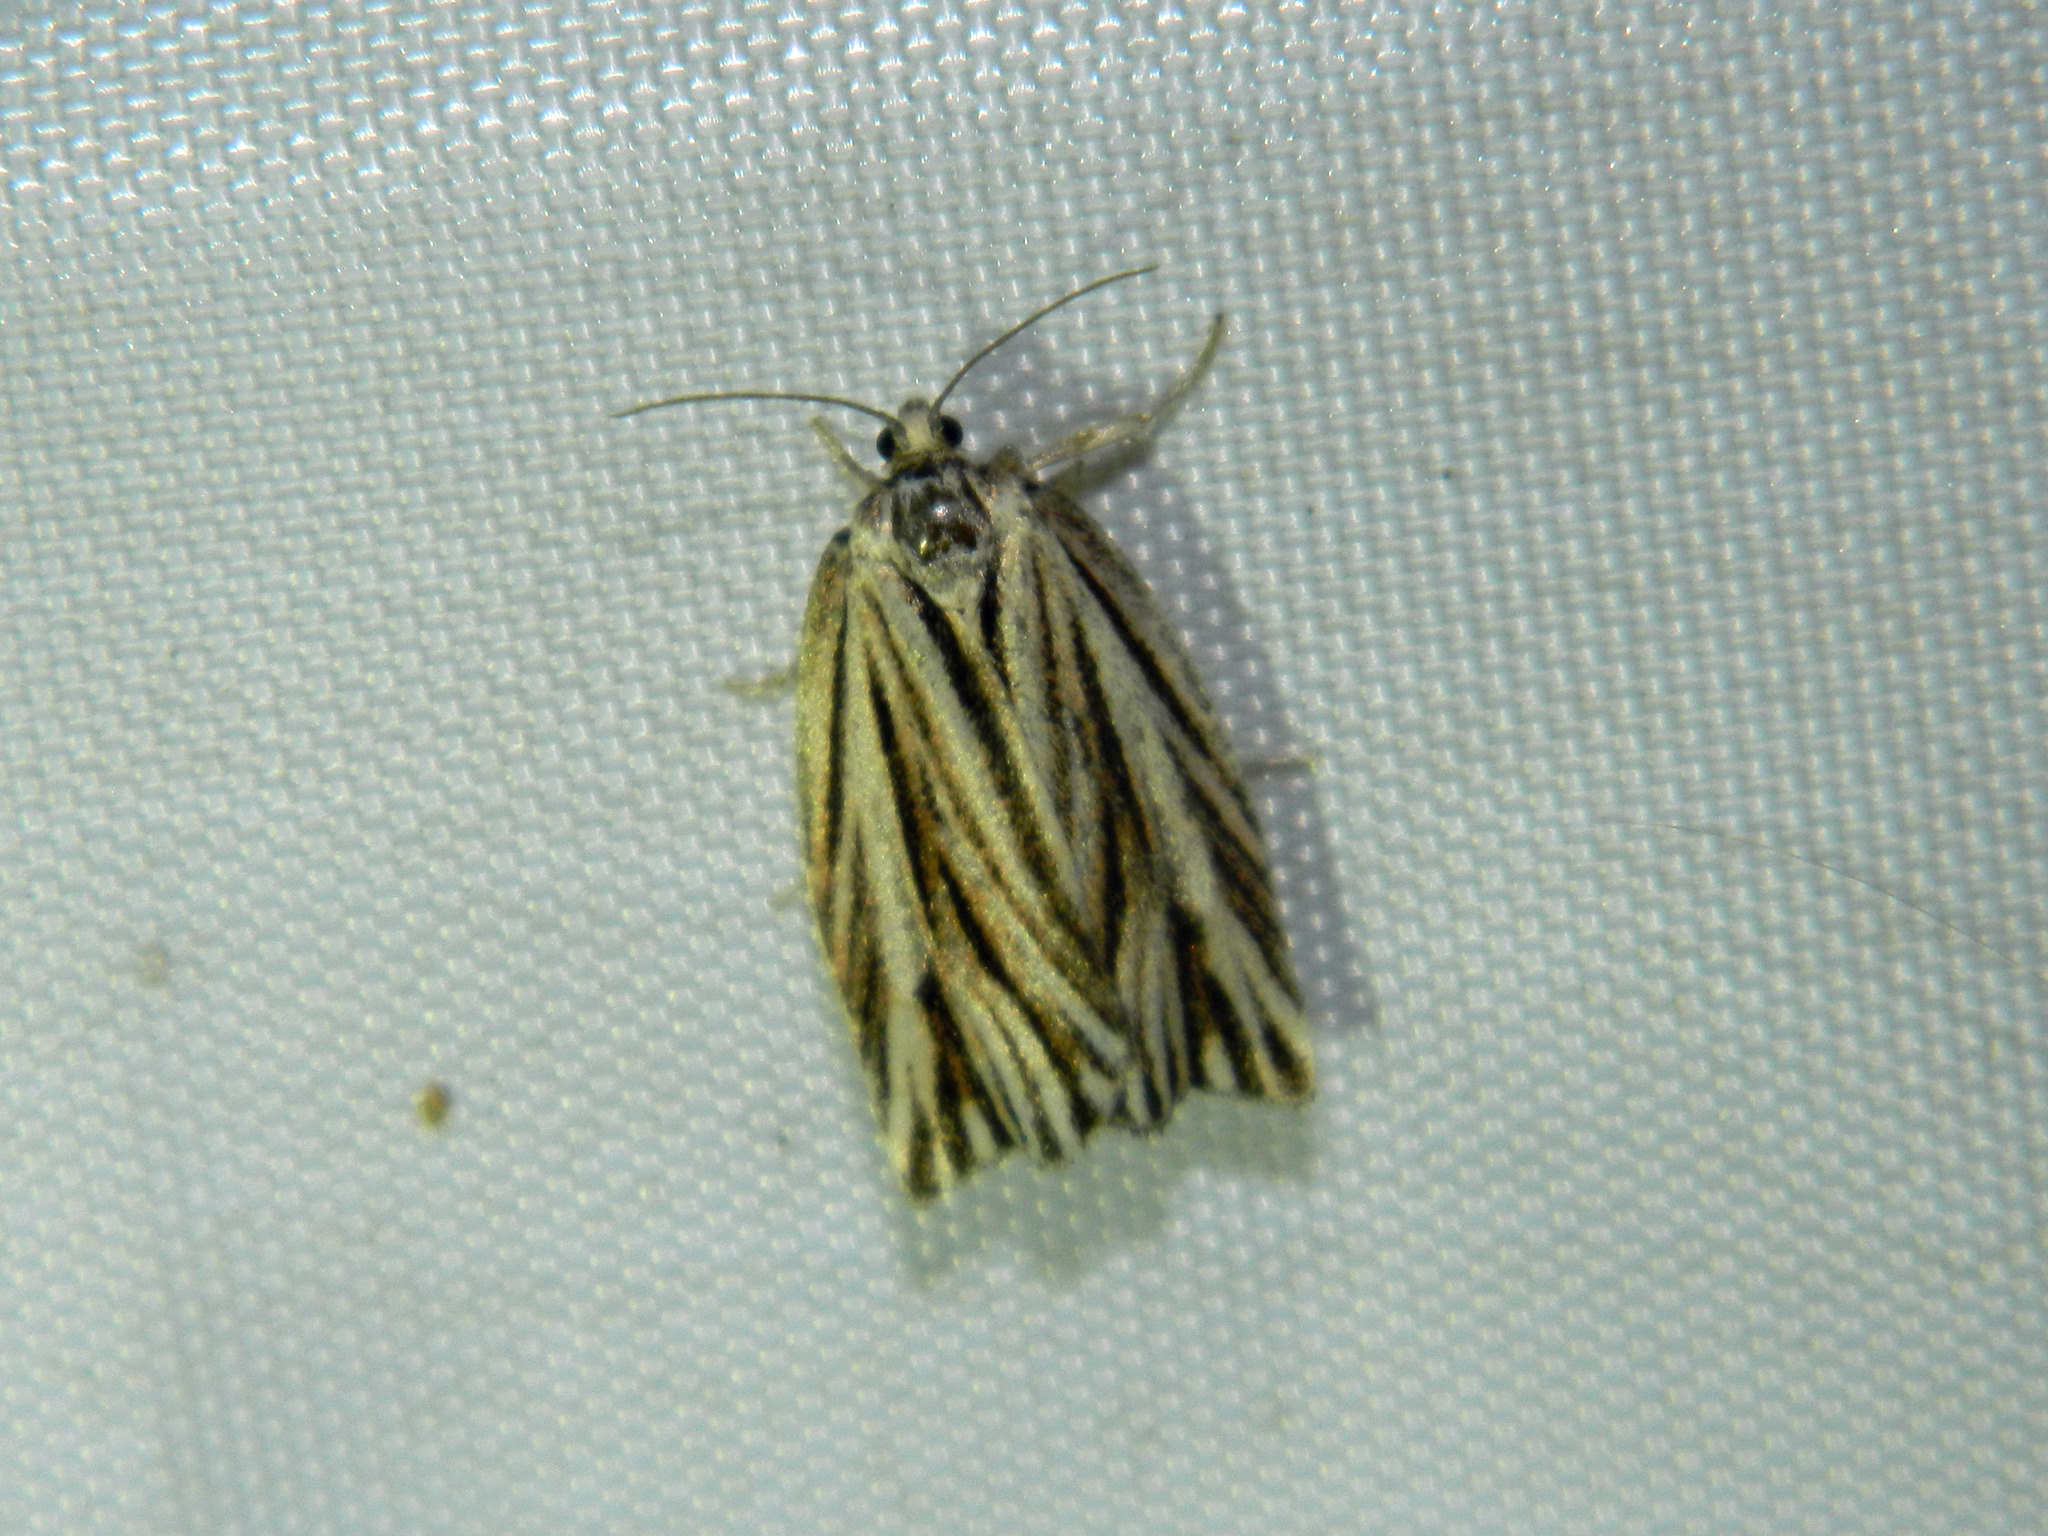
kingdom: Animalia
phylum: Arthropoda
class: Insecta
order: Lepidoptera
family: Tortricidae
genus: Archips
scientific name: Archips strianus
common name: Striated tortrix moth
